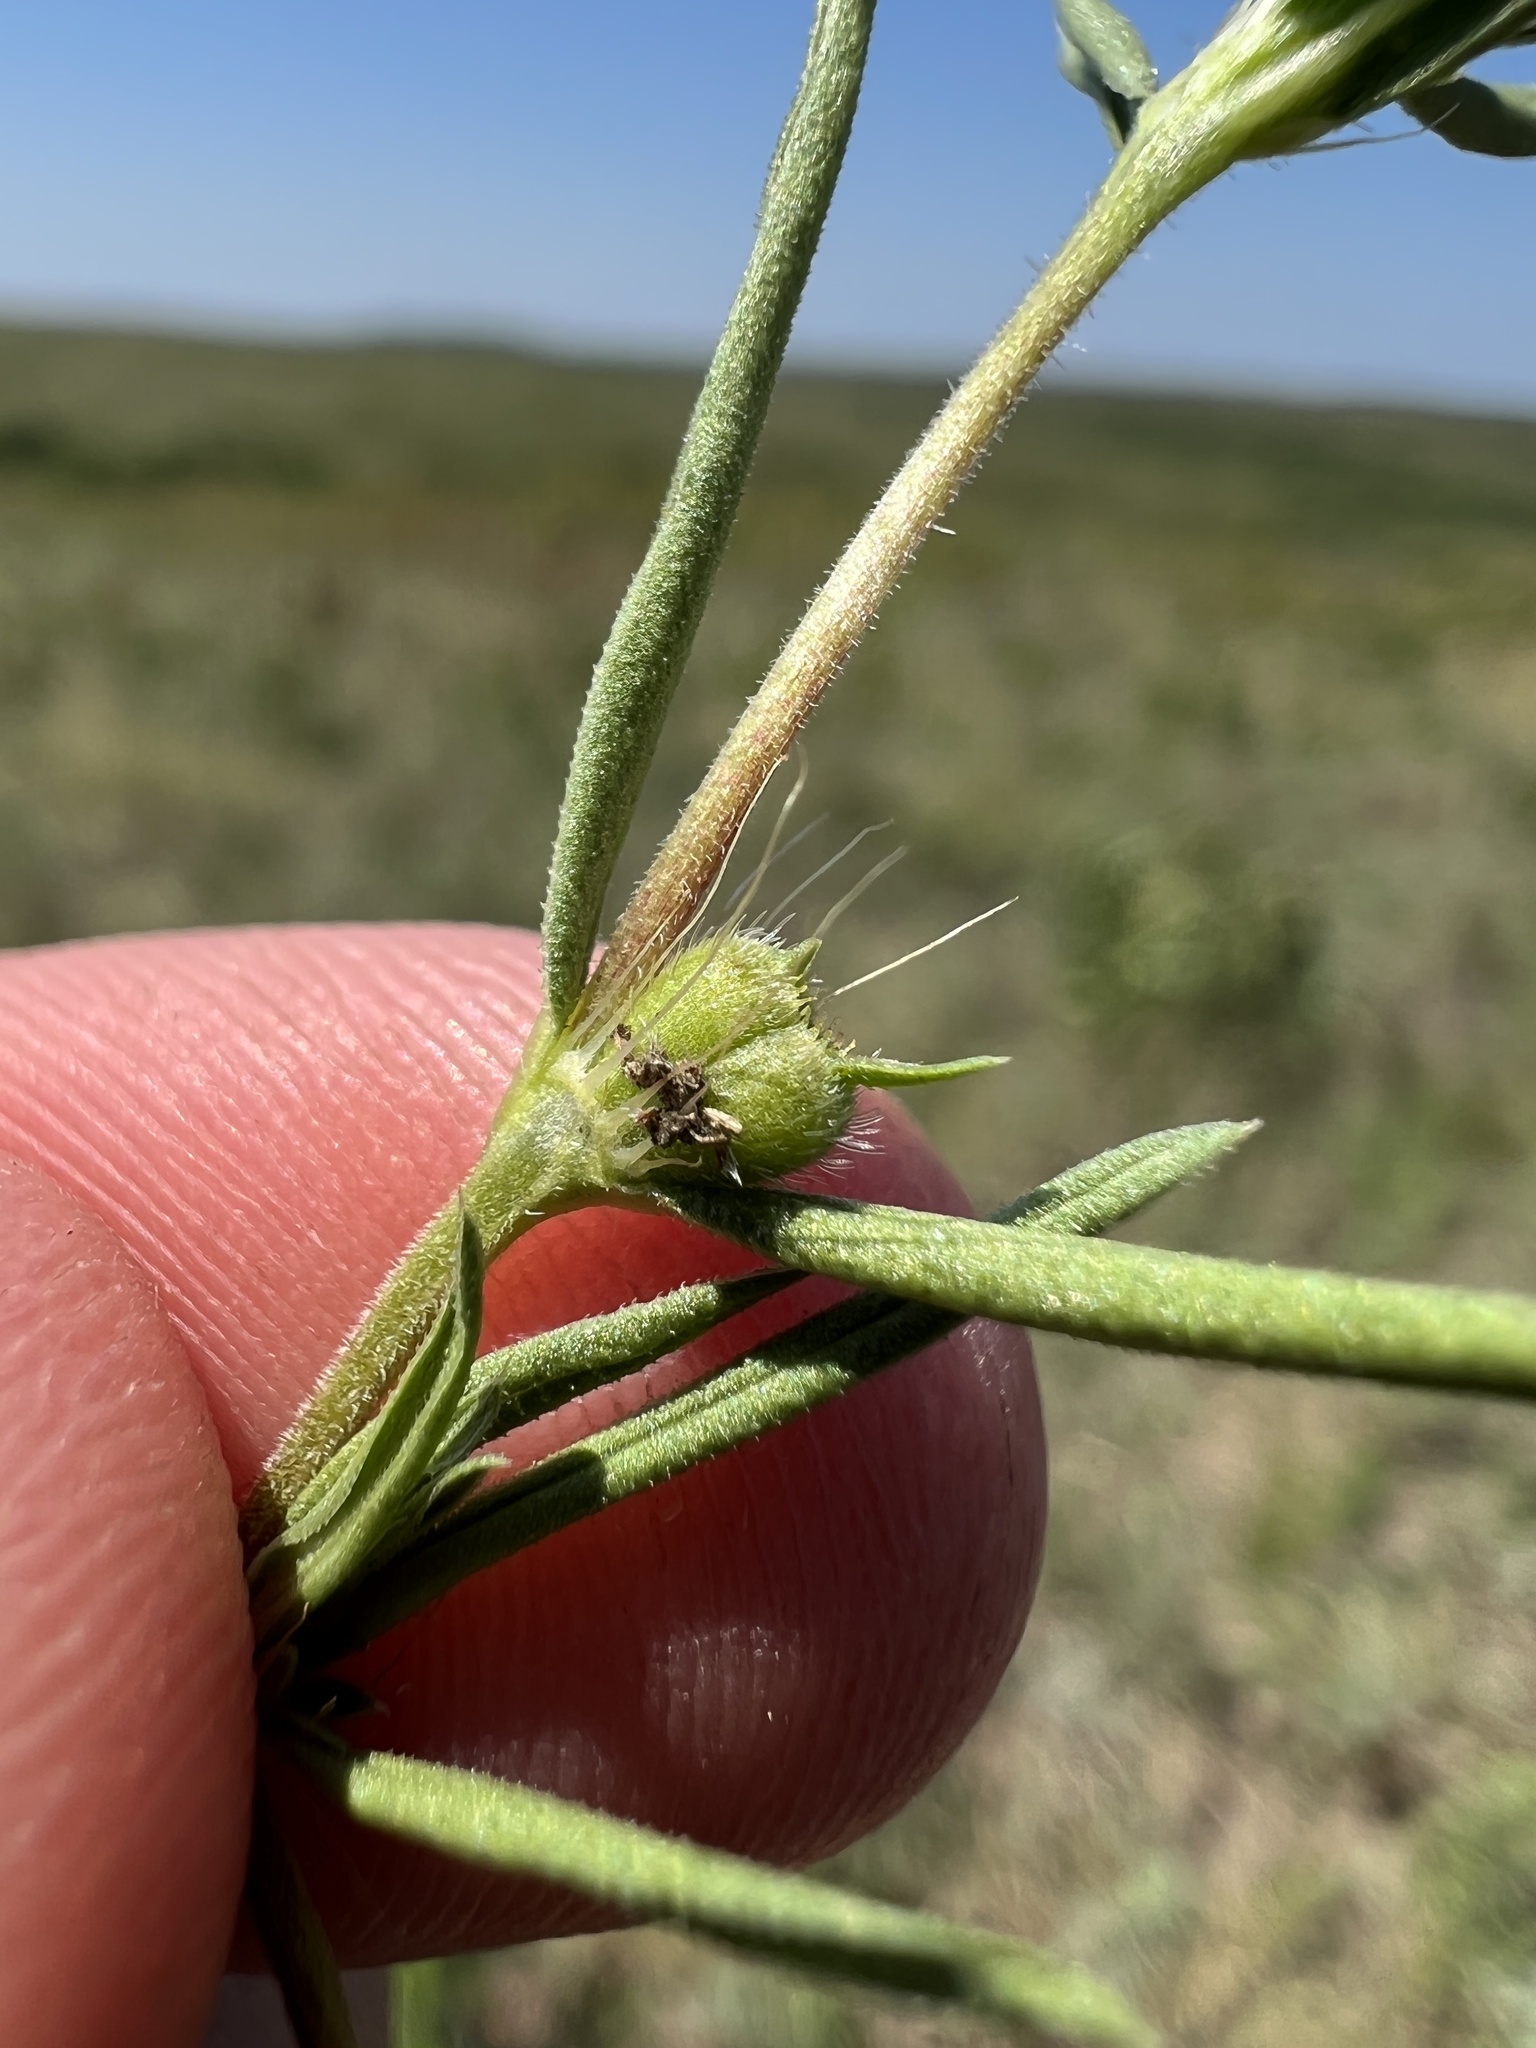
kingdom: Plantae
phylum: Tracheophyta
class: Magnoliopsida
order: Gentianales
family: Rubiaceae
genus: Hexasepalum
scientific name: Hexasepalum teres
